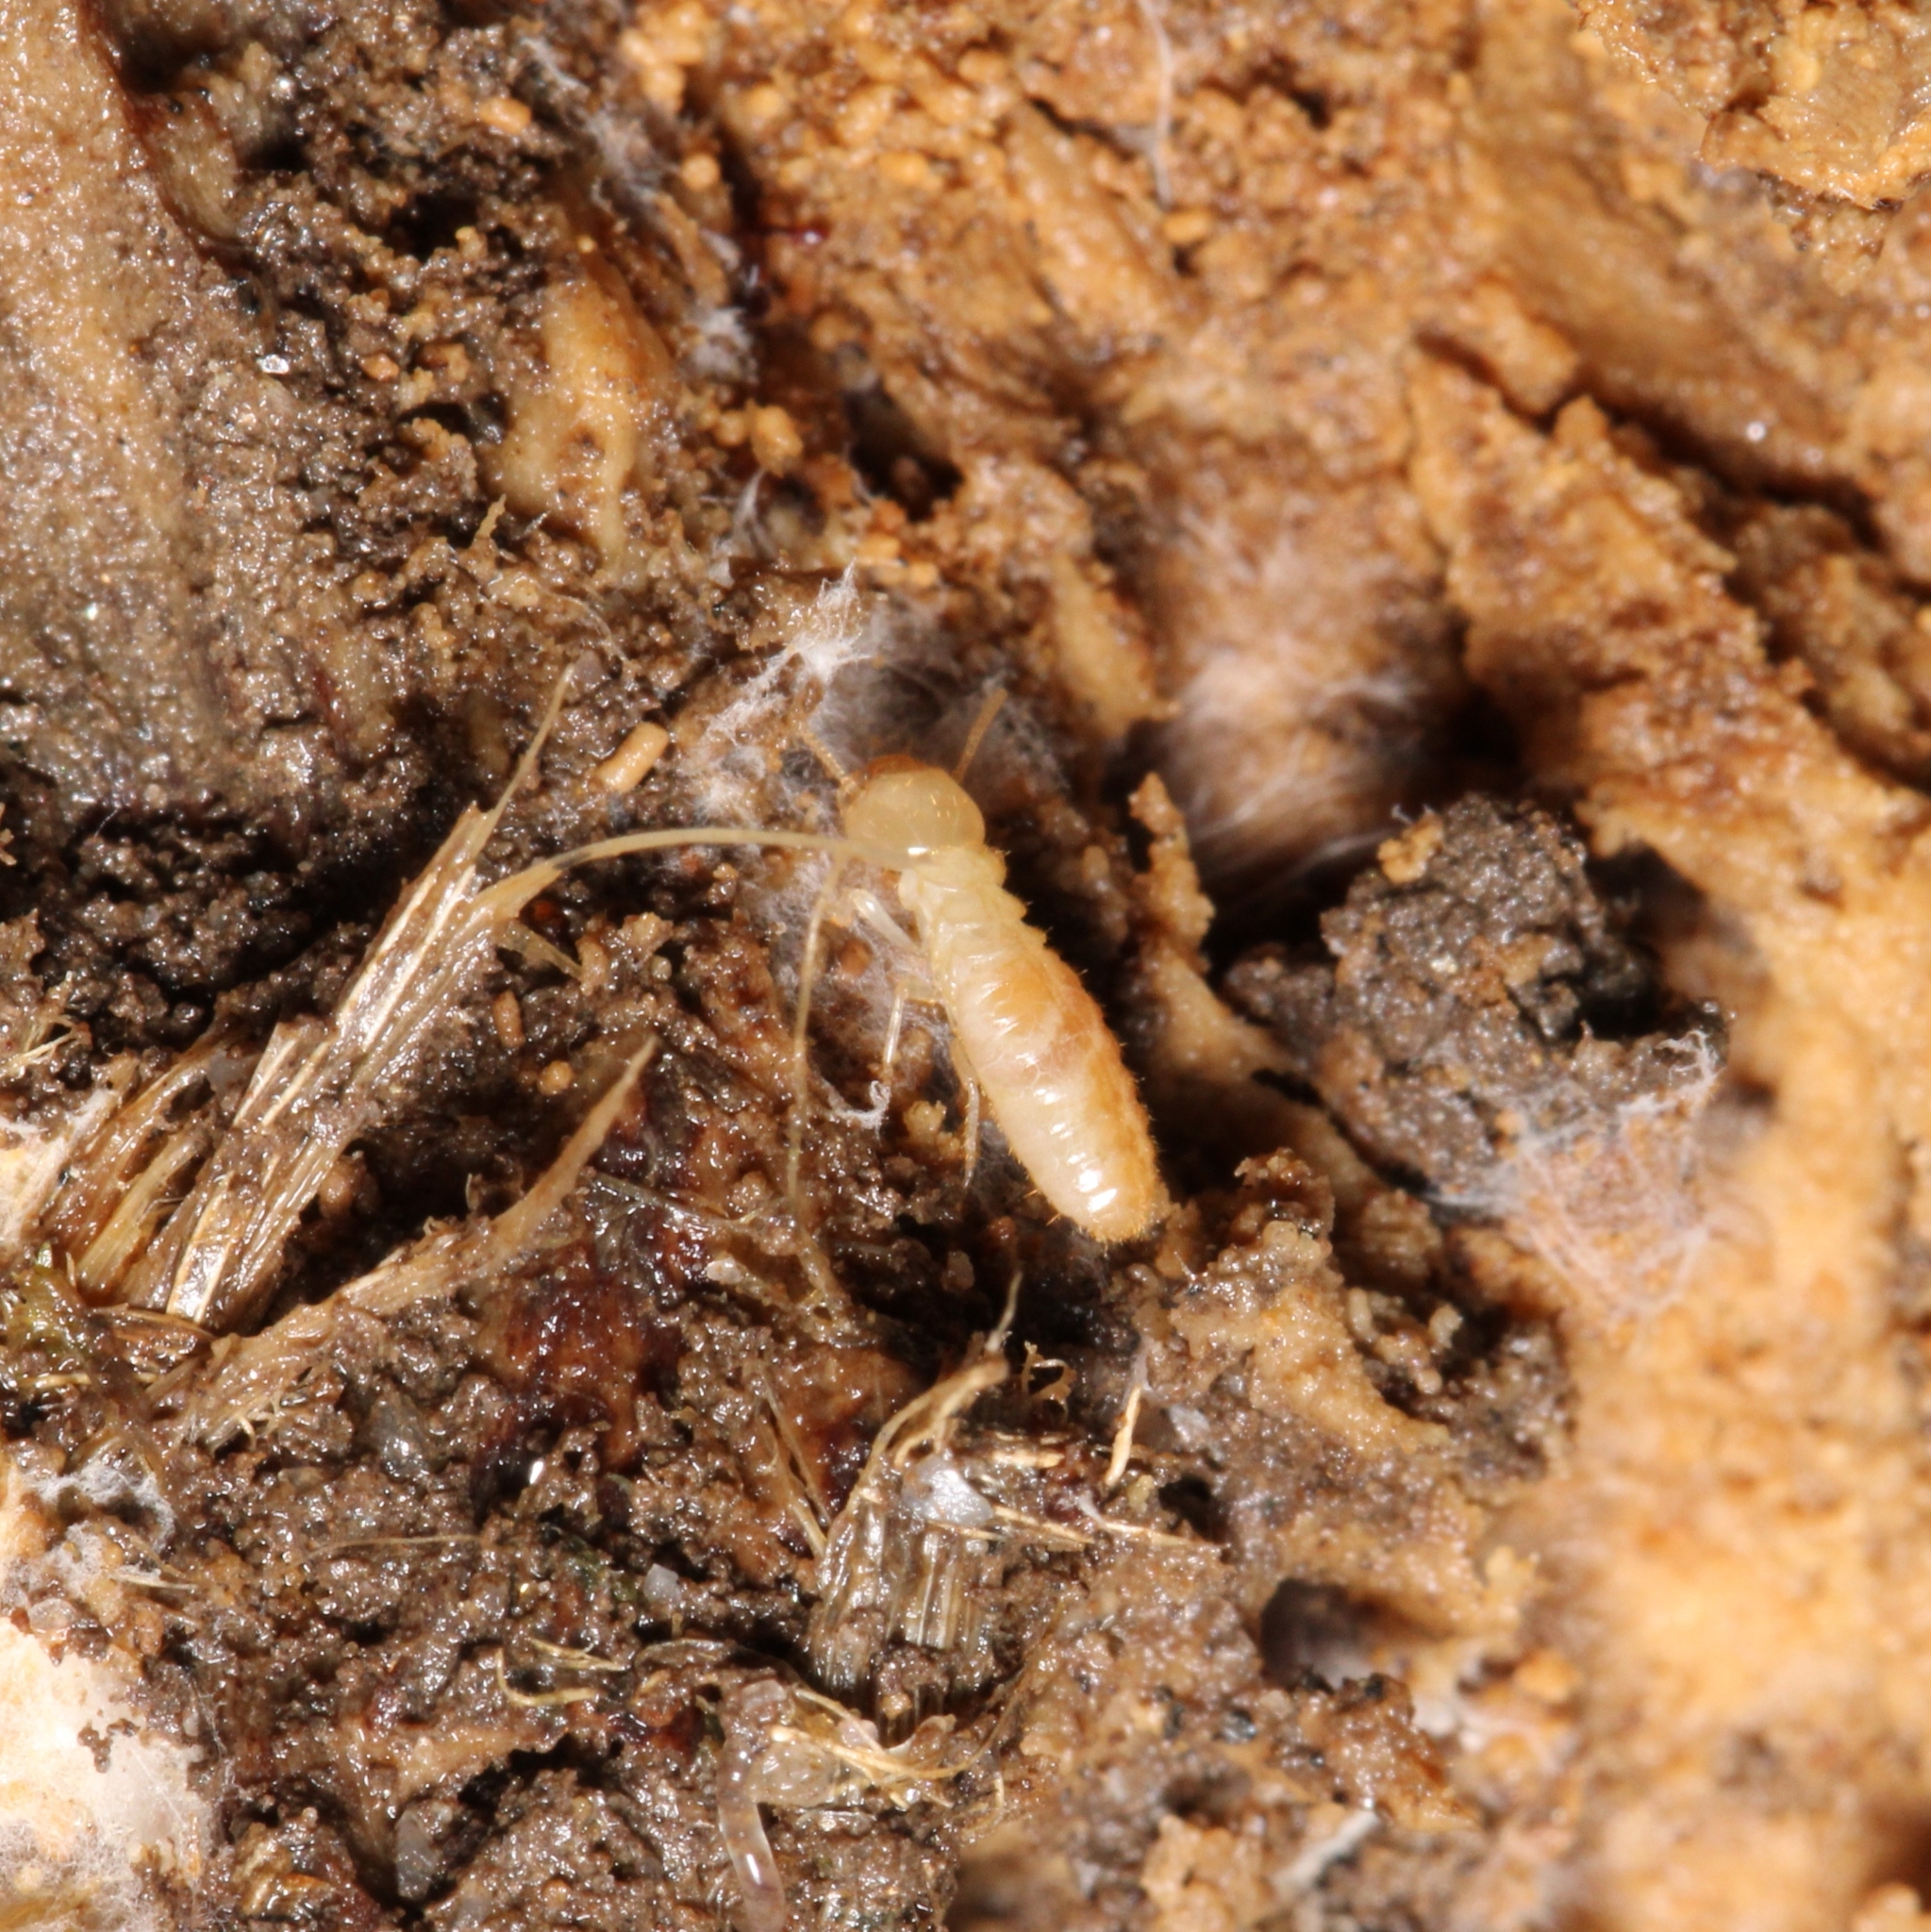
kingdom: Animalia
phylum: Arthropoda
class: Insecta
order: Blattodea
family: Rhinotermitidae
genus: Reticulitermes
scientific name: Reticulitermes flavipes
